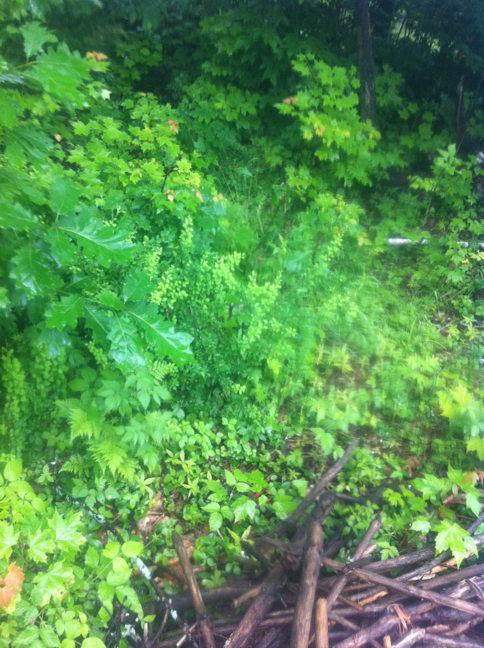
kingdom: Plantae
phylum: Tracheophyta
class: Magnoliopsida
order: Fagales
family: Fagaceae
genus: Quercus
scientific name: Quercus rubra
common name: Red oak
